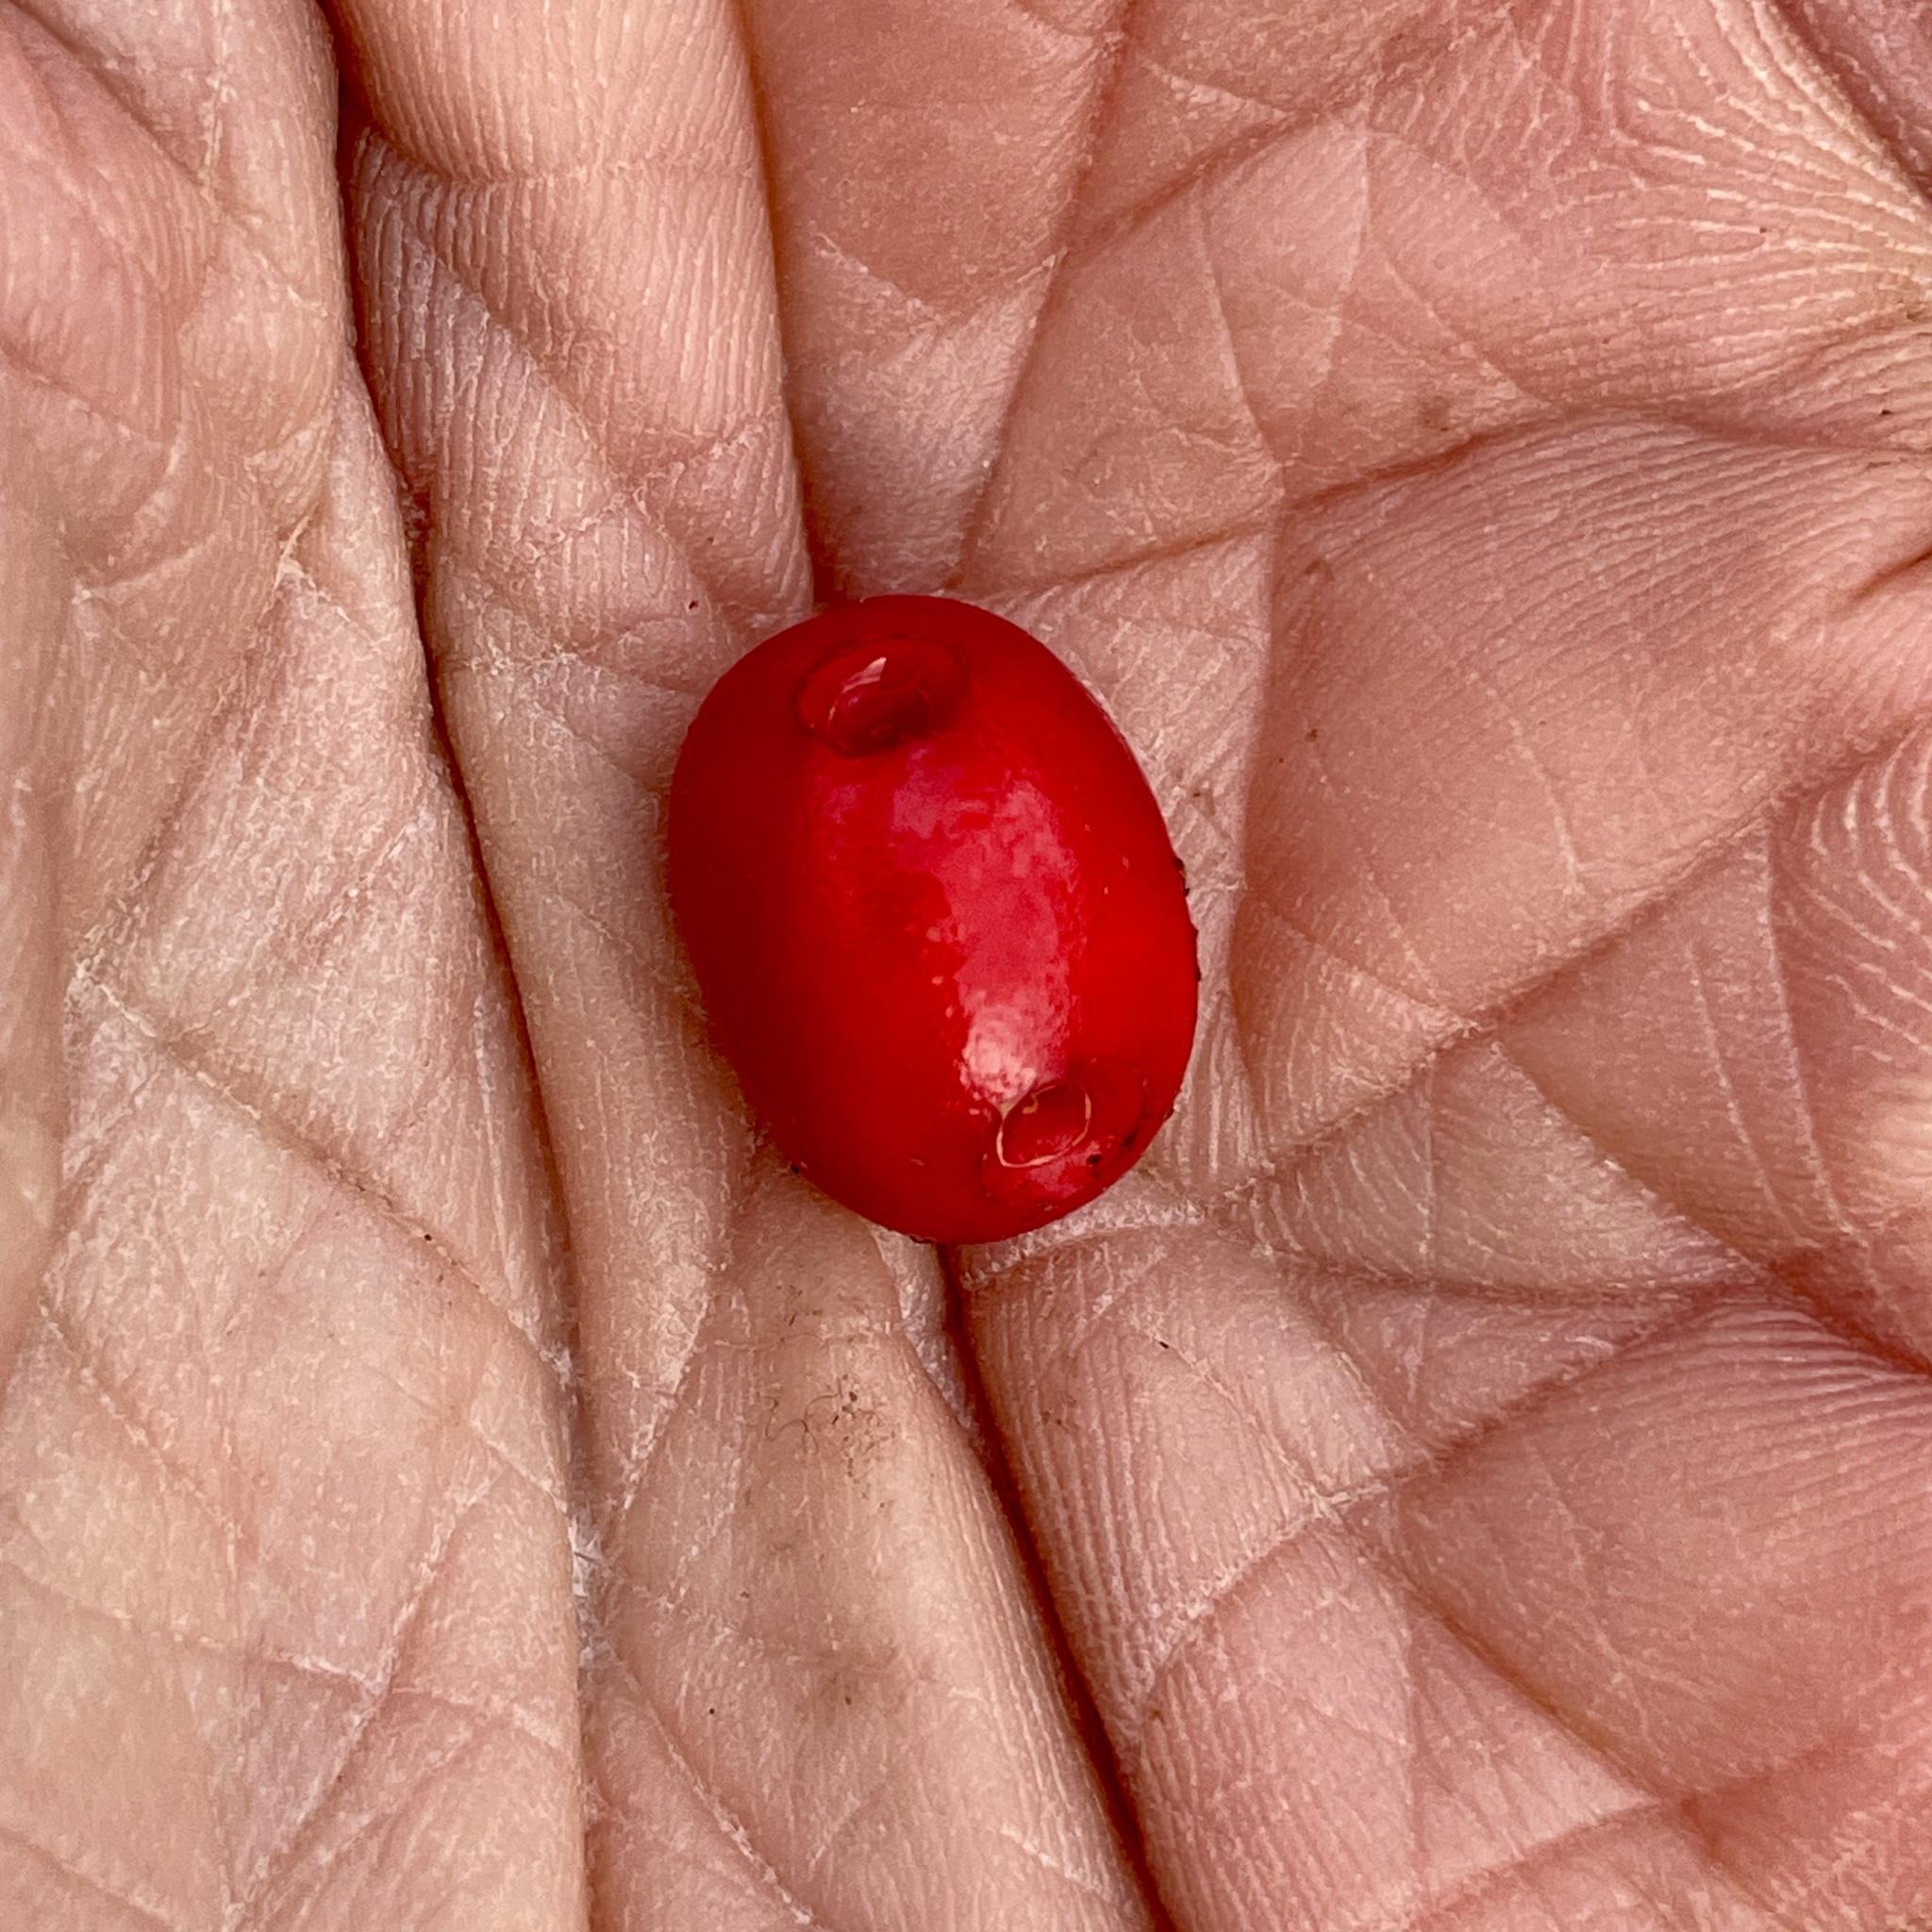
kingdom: Plantae
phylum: Tracheophyta
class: Magnoliopsida
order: Gentianales
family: Rubiaceae
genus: Mitchella
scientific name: Mitchella repens
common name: Partridge-berry
